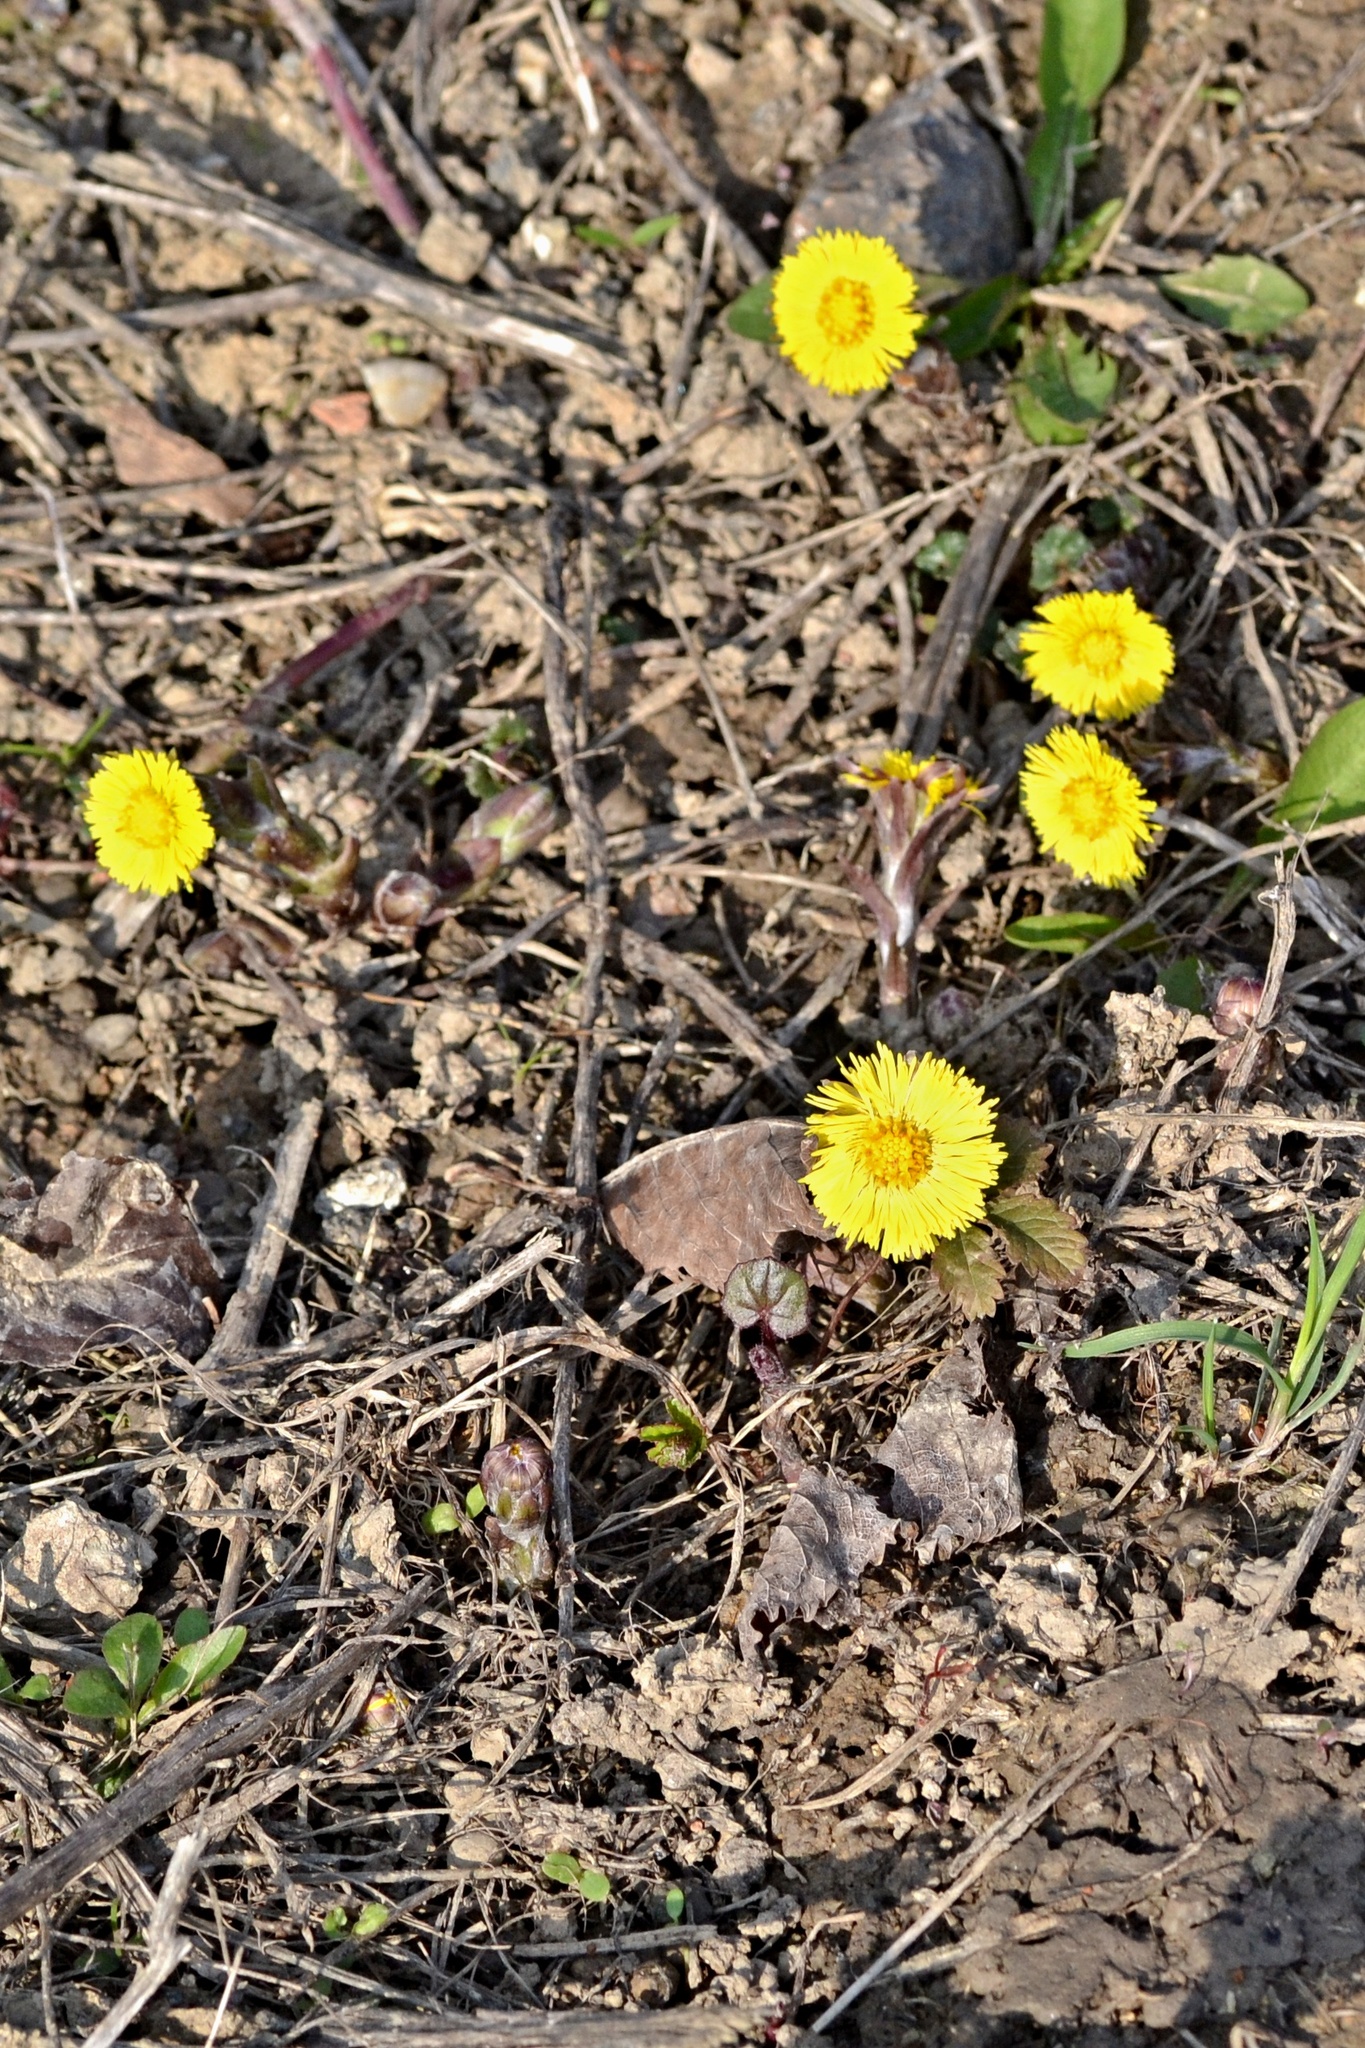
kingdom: Plantae
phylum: Tracheophyta
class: Magnoliopsida
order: Asterales
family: Asteraceae
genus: Tussilago
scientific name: Tussilago farfara
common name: Coltsfoot
